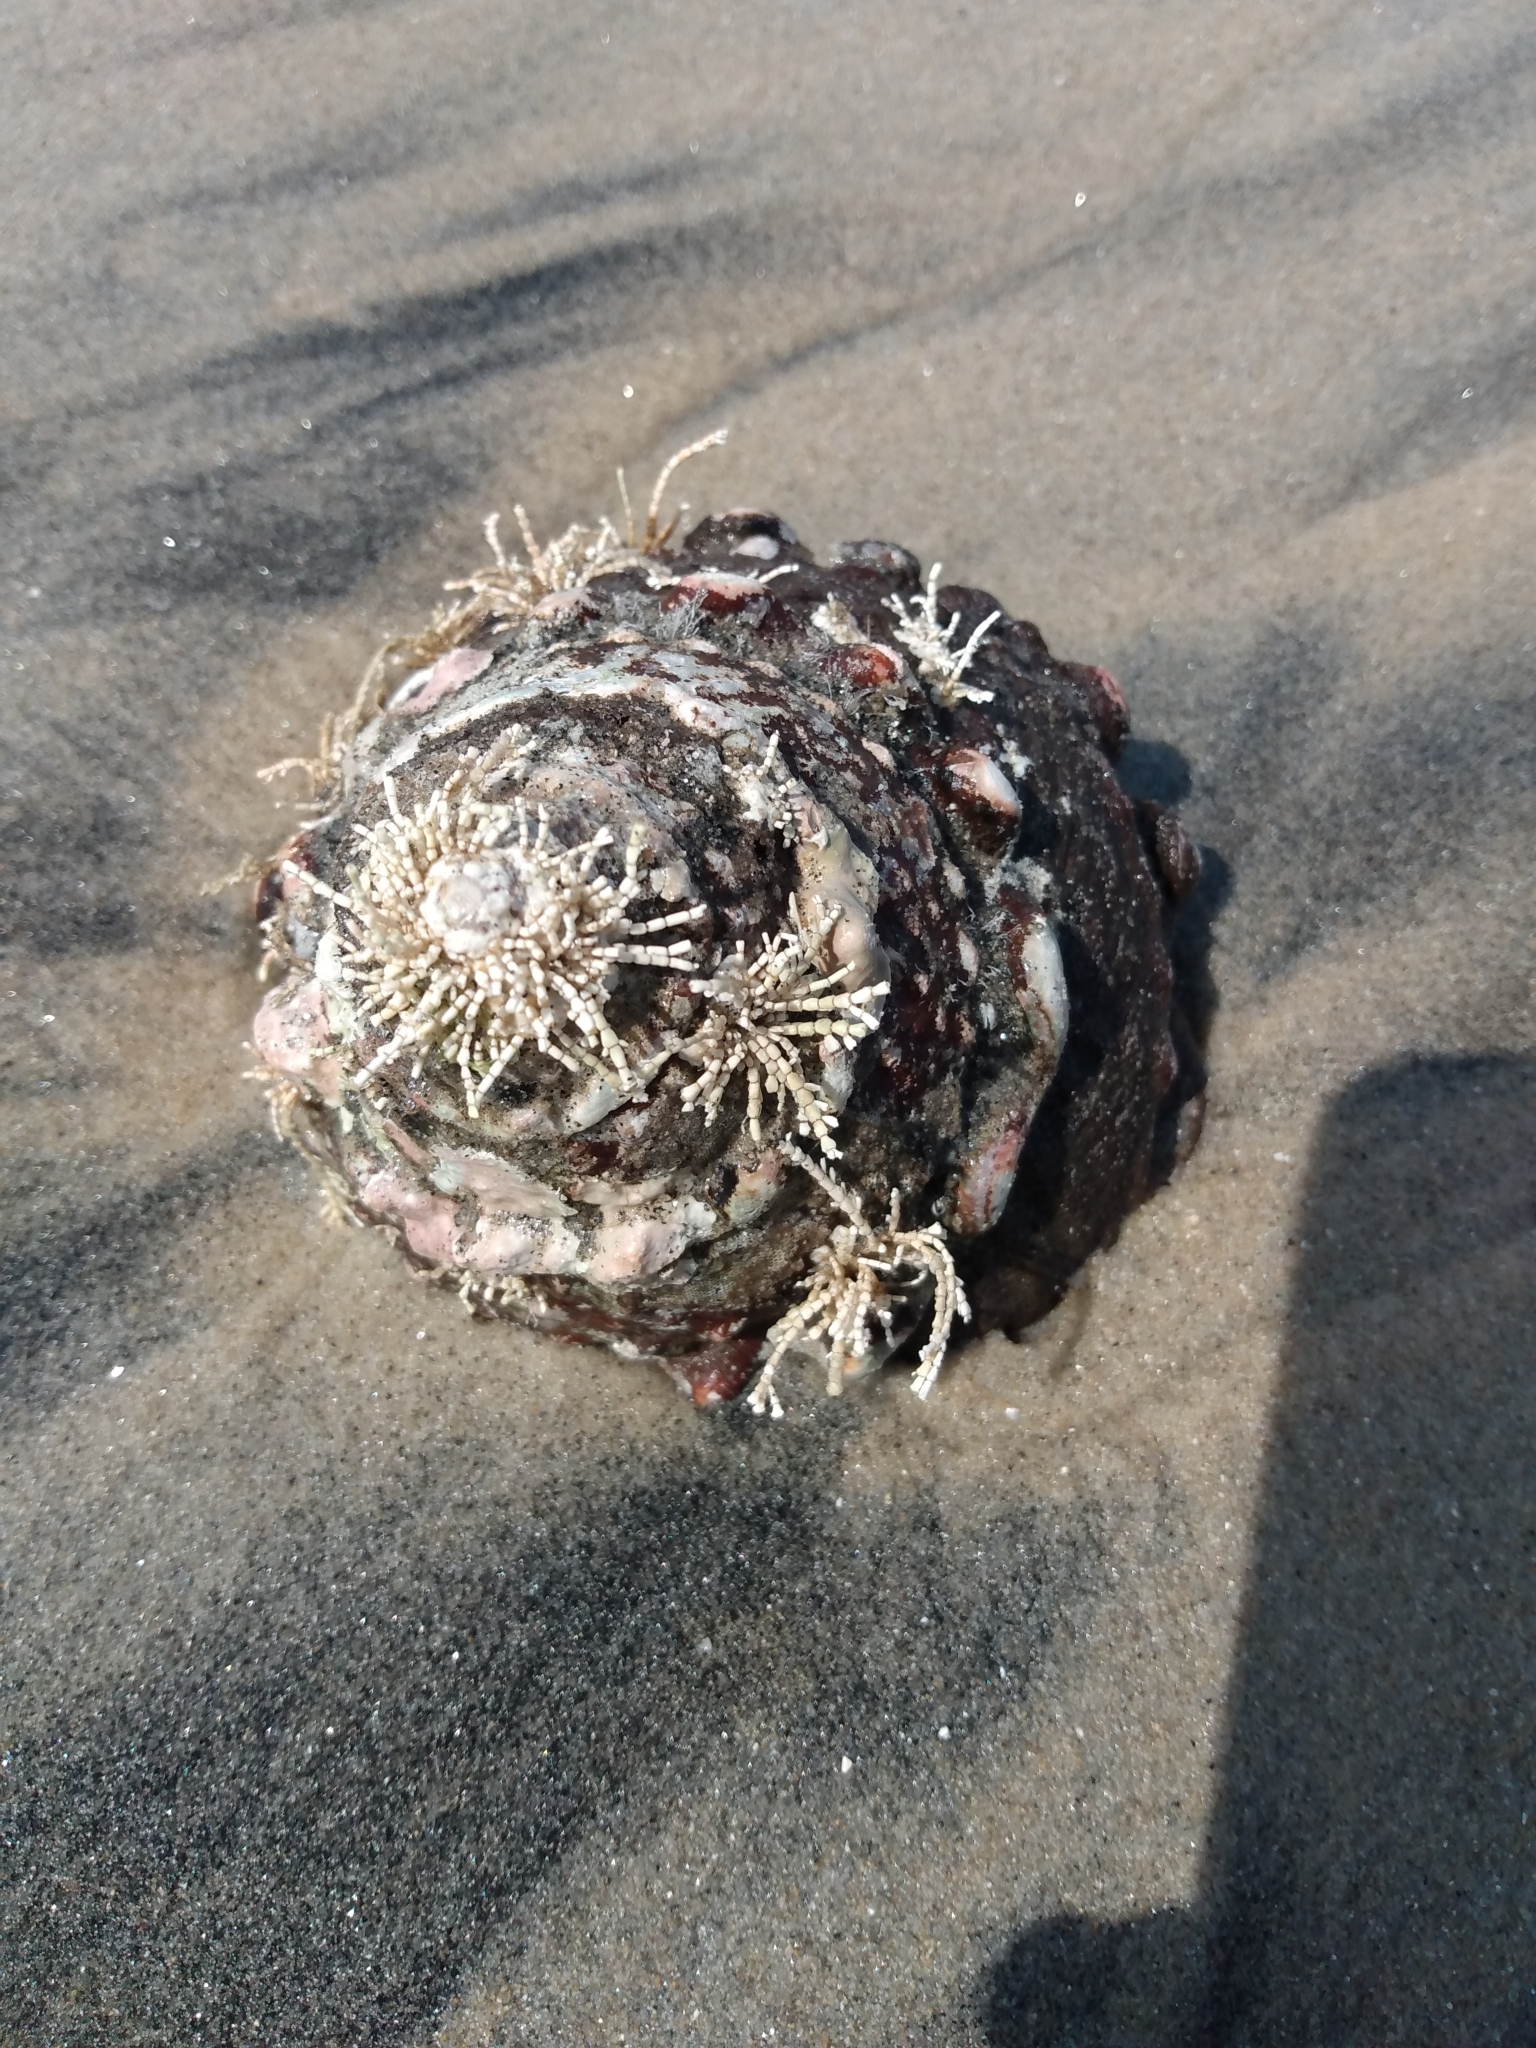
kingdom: Animalia
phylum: Mollusca
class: Gastropoda
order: Trochida
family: Turbinidae
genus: Megastraea
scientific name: Megastraea undosa
